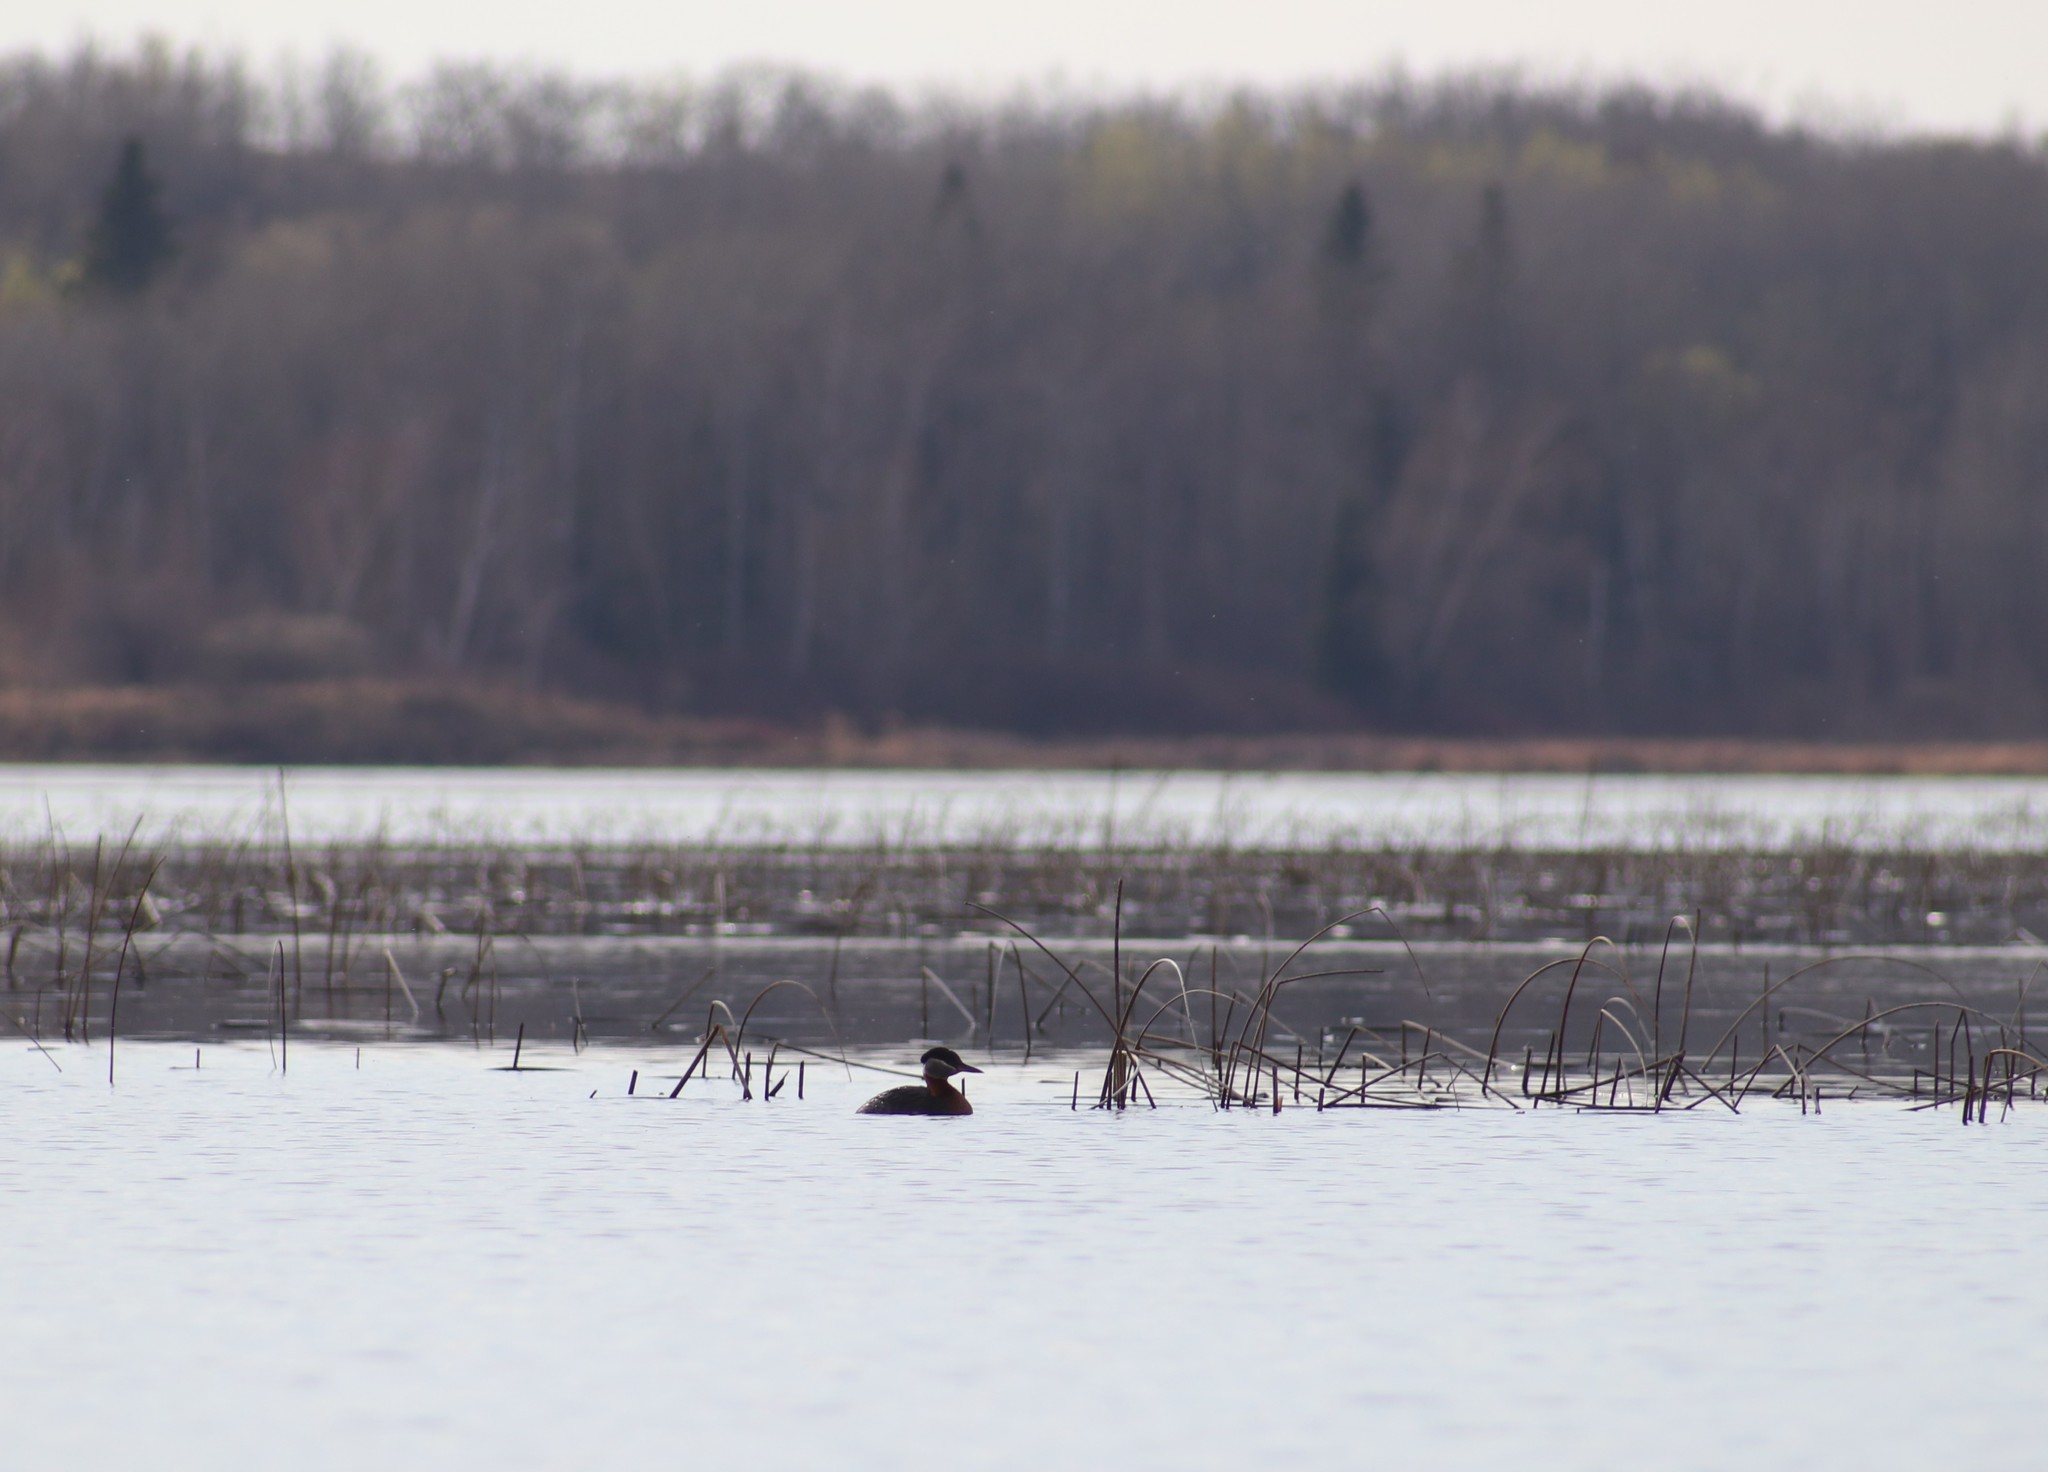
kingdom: Animalia
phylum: Chordata
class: Aves
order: Podicipediformes
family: Podicipedidae
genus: Podiceps
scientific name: Podiceps grisegena
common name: Red-necked grebe
